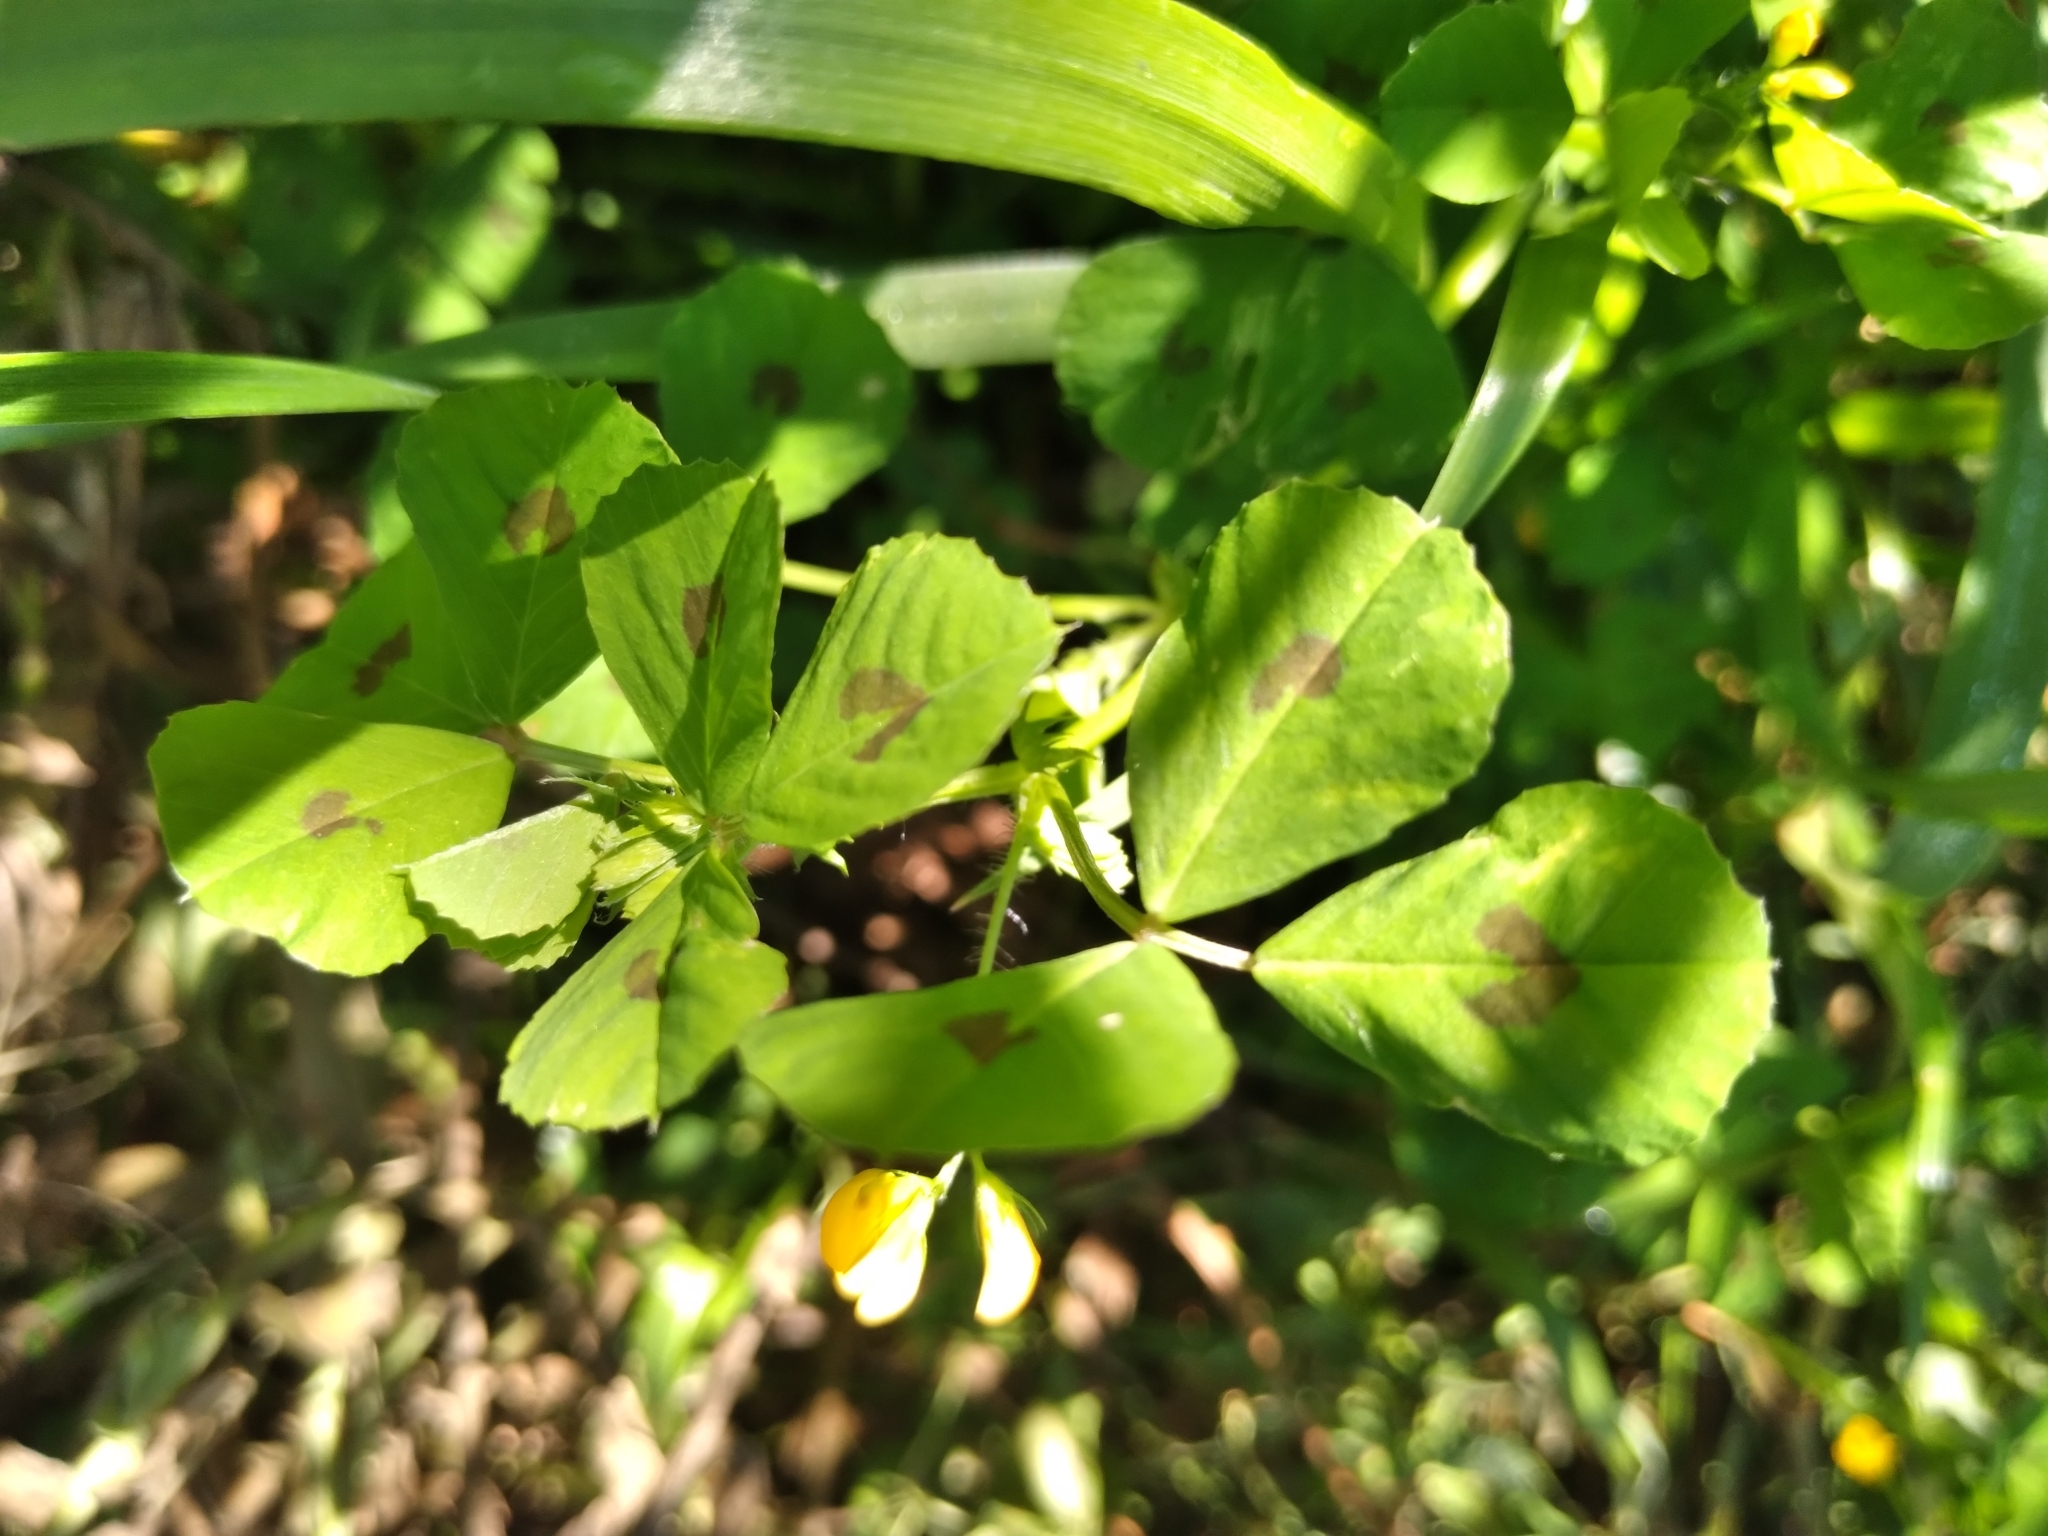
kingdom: Plantae
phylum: Tracheophyta
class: Magnoliopsida
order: Fabales
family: Fabaceae
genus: Medicago
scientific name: Medicago arabica
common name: Spotted medick
